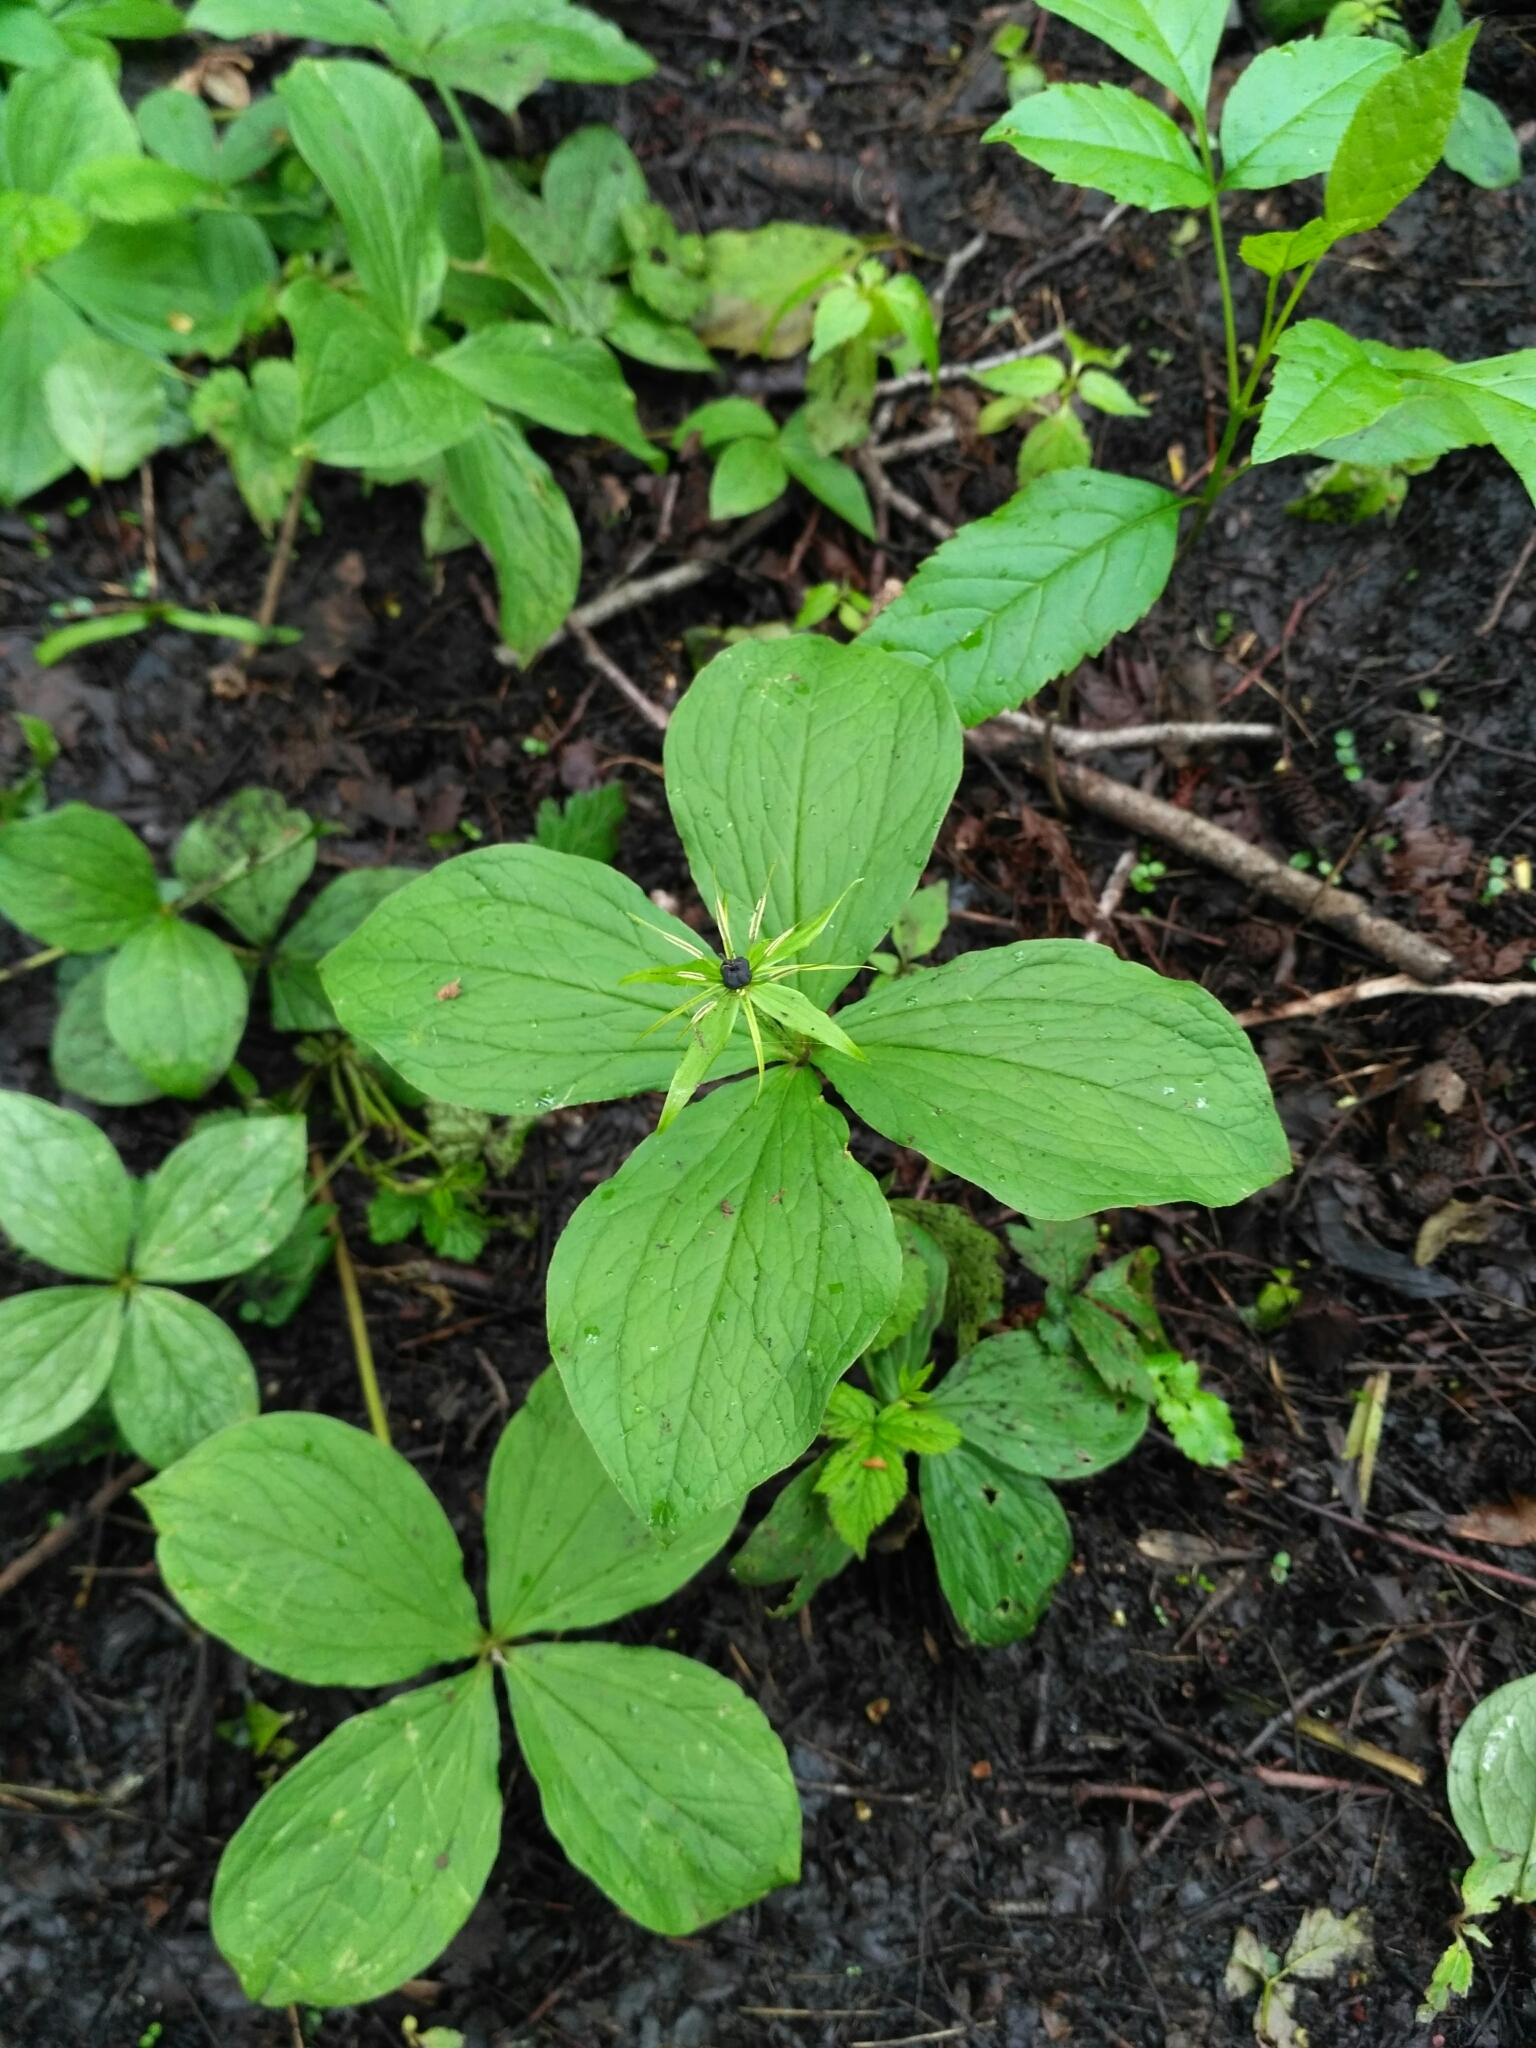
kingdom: Plantae
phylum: Tracheophyta
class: Liliopsida
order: Liliales
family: Melanthiaceae
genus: Paris
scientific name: Paris quadrifolia
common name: Herb-paris
